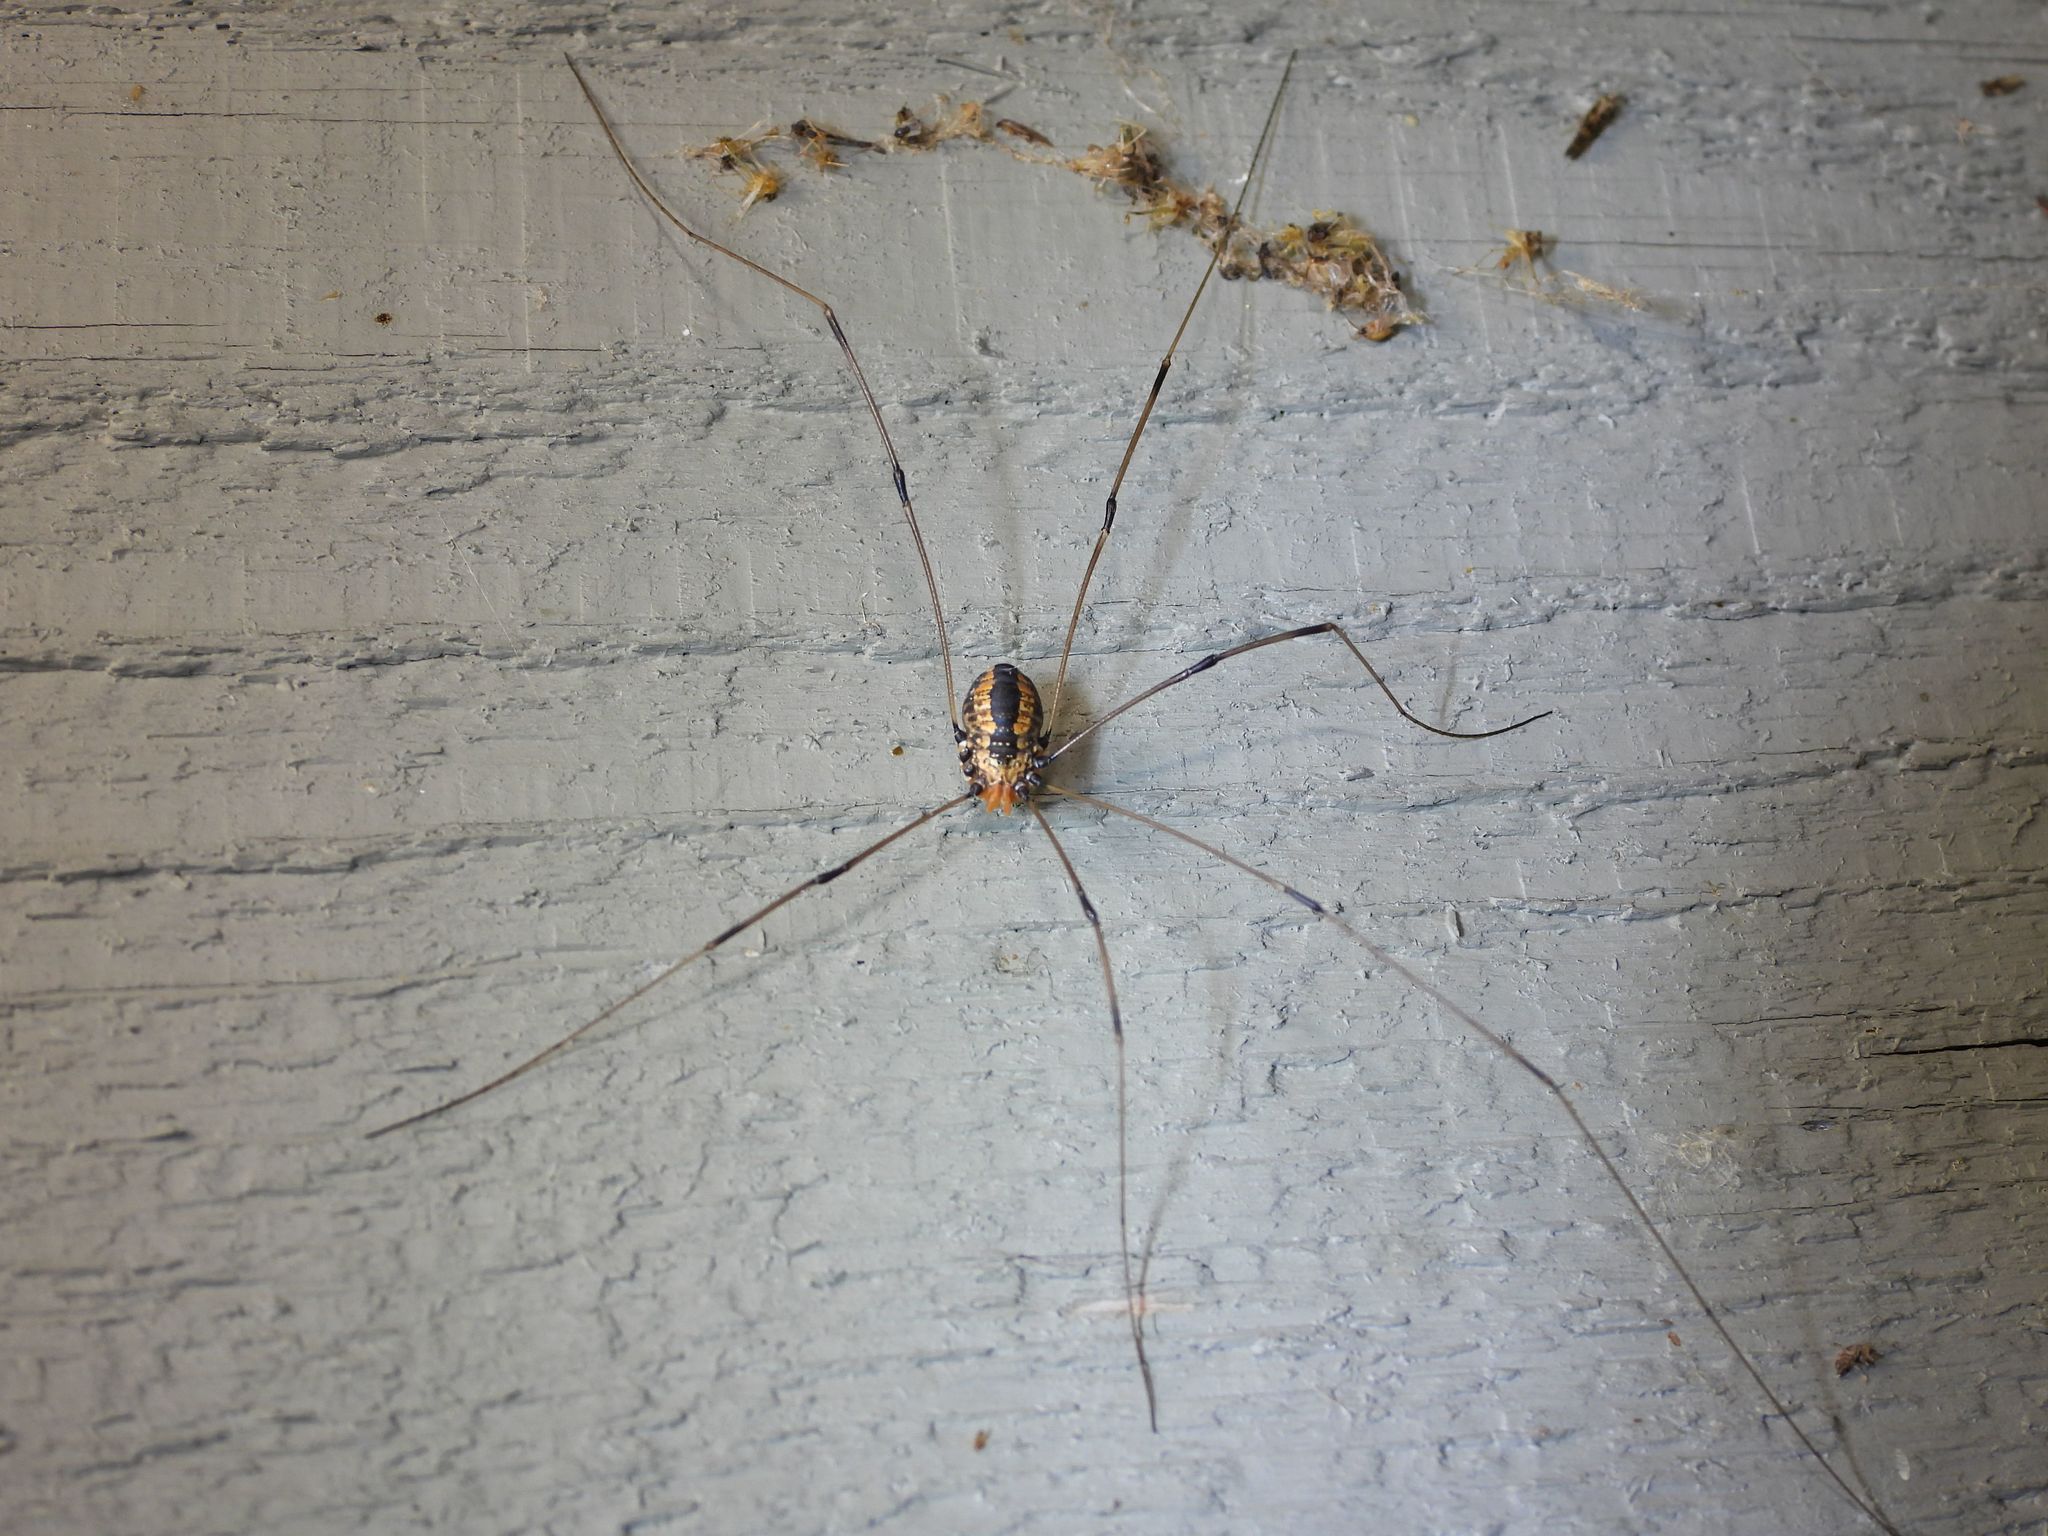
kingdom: Animalia
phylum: Arthropoda
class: Arachnida
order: Opiliones
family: Sclerosomatidae
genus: Leiobunum
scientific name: Leiobunum vittatum
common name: Eastern harvestman
